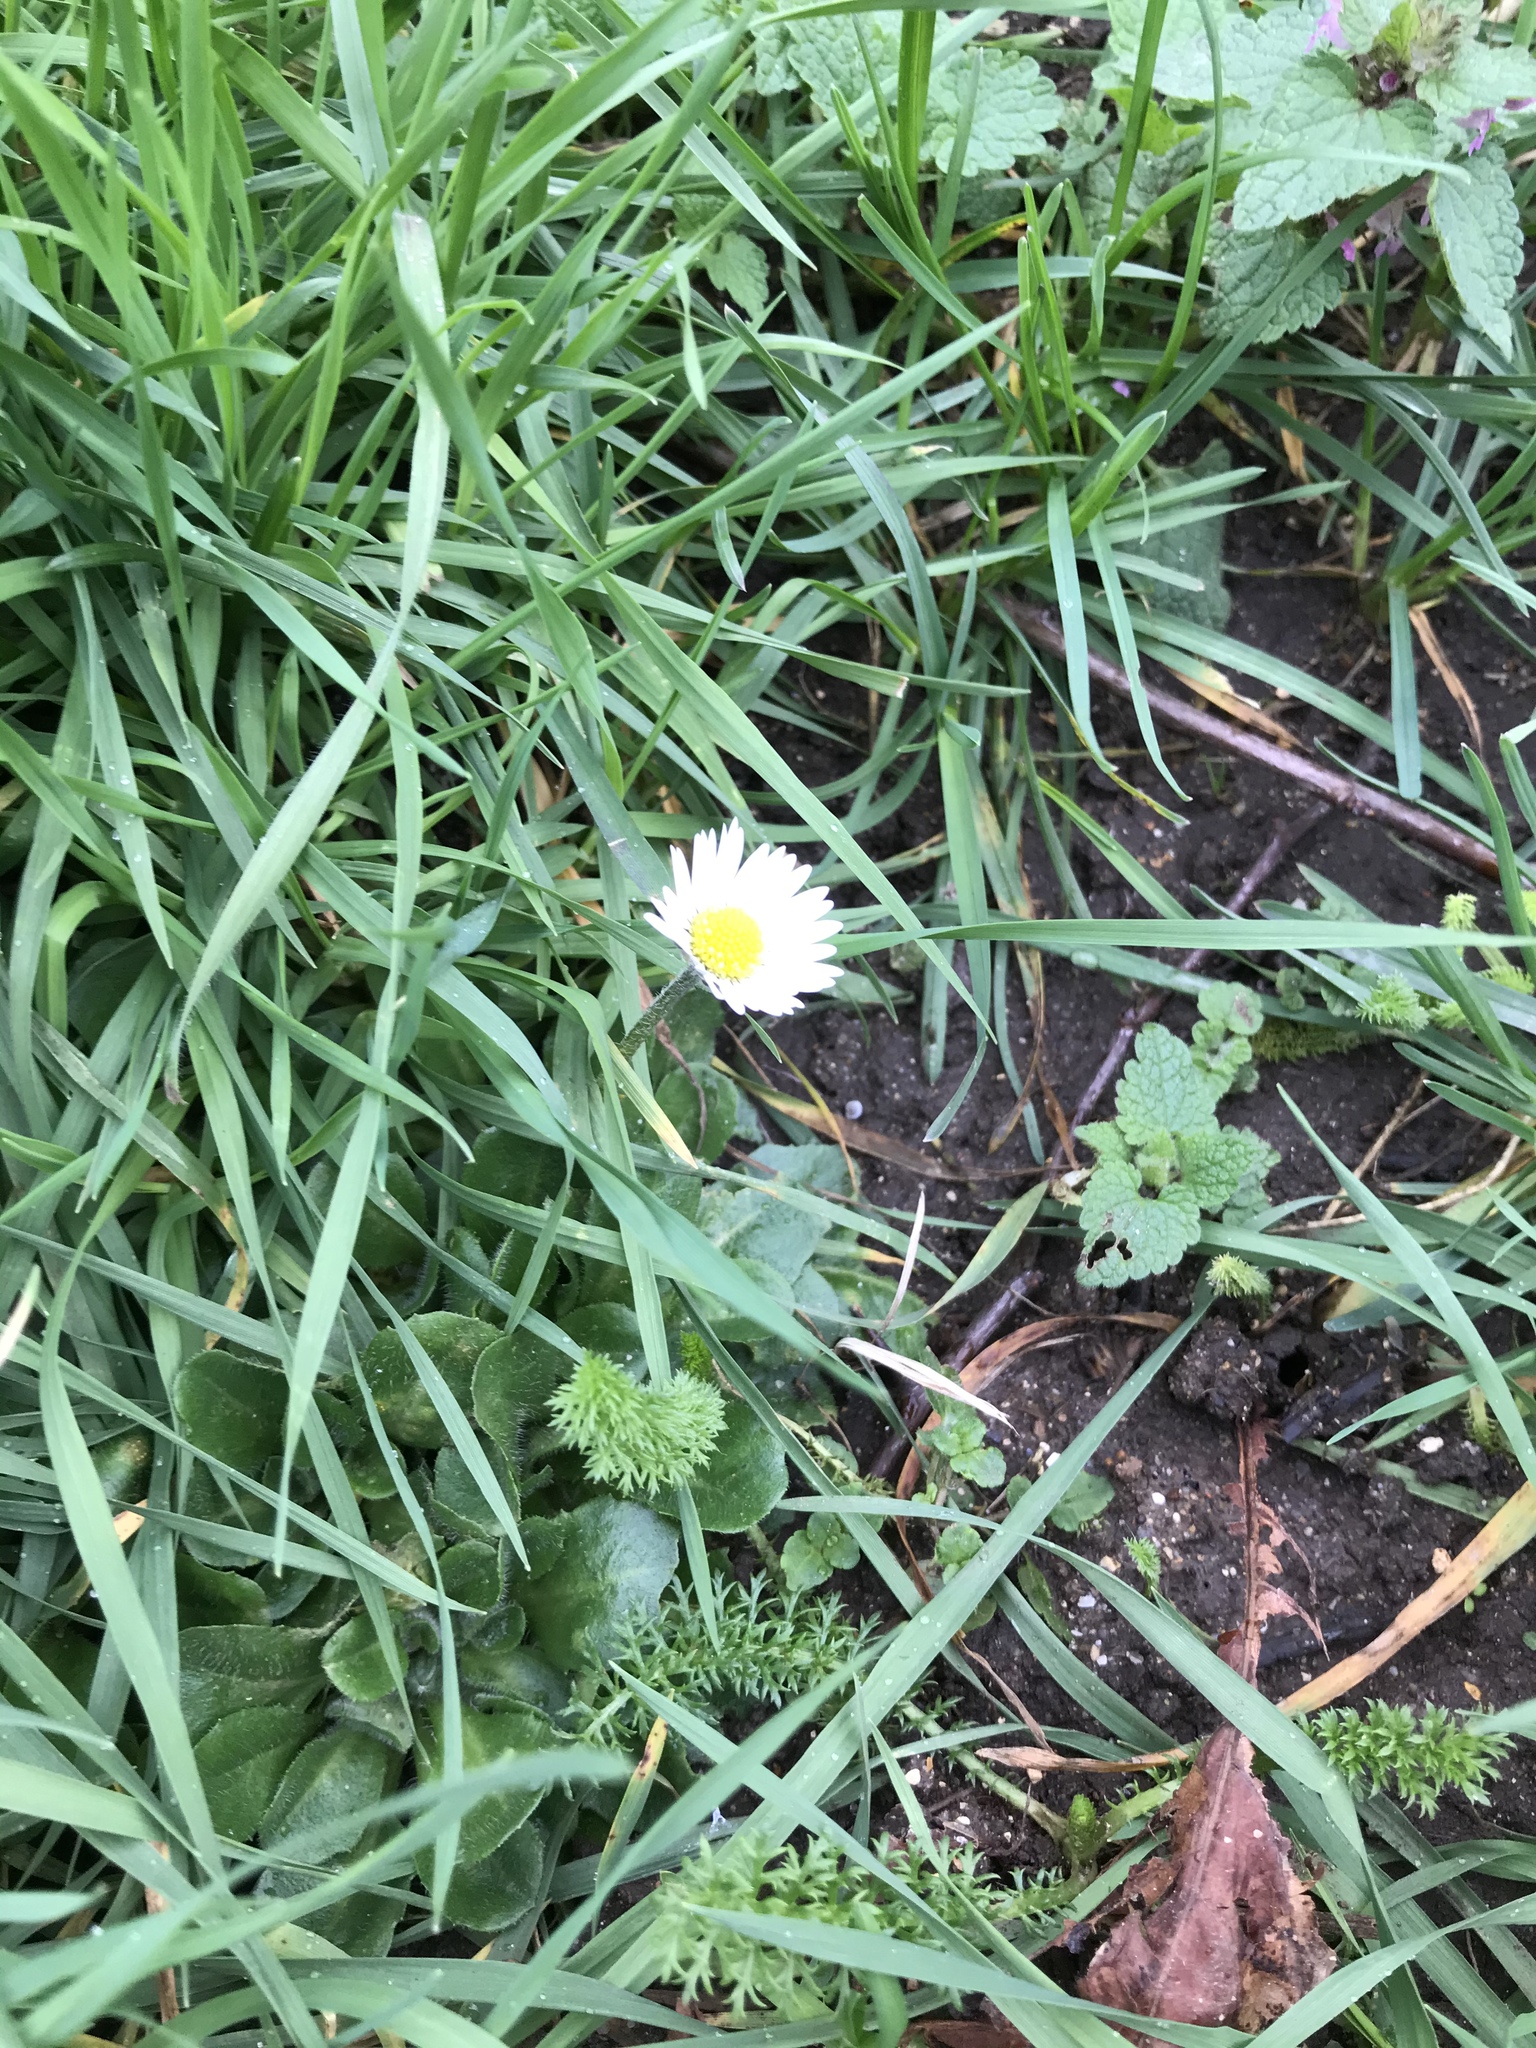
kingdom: Plantae
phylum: Tracheophyta
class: Magnoliopsida
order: Asterales
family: Asteraceae
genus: Bellis
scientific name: Bellis perennis
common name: Lawndaisy
